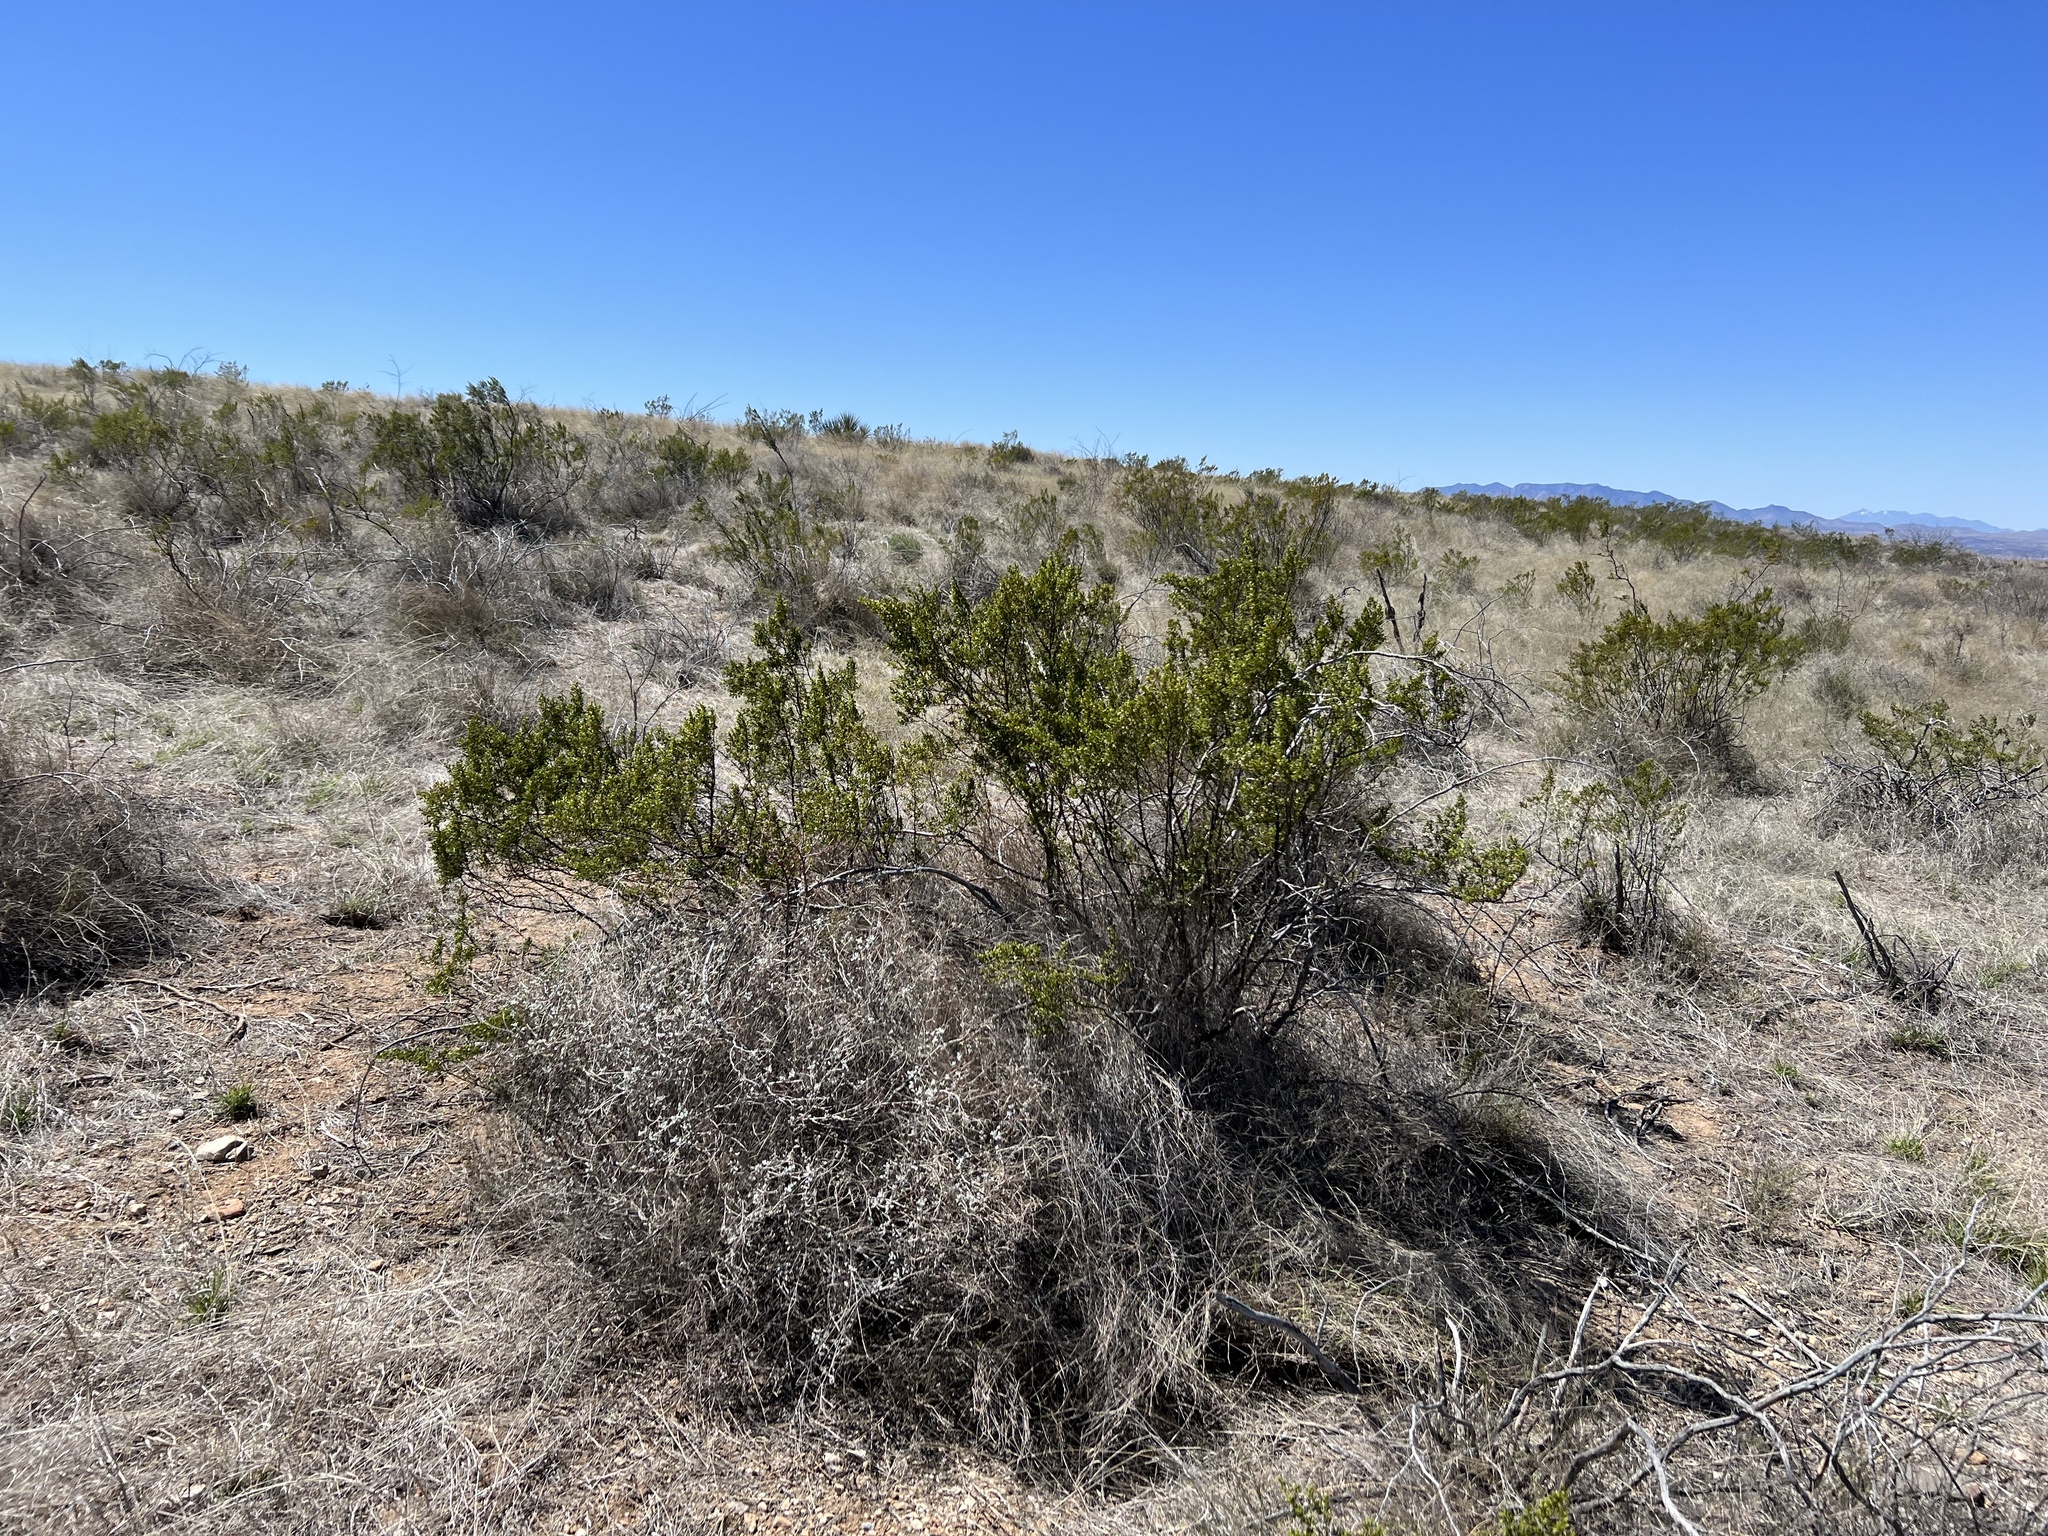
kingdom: Plantae
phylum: Tracheophyta
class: Magnoliopsida
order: Zygophyllales
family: Zygophyllaceae
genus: Larrea
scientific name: Larrea tridentata
